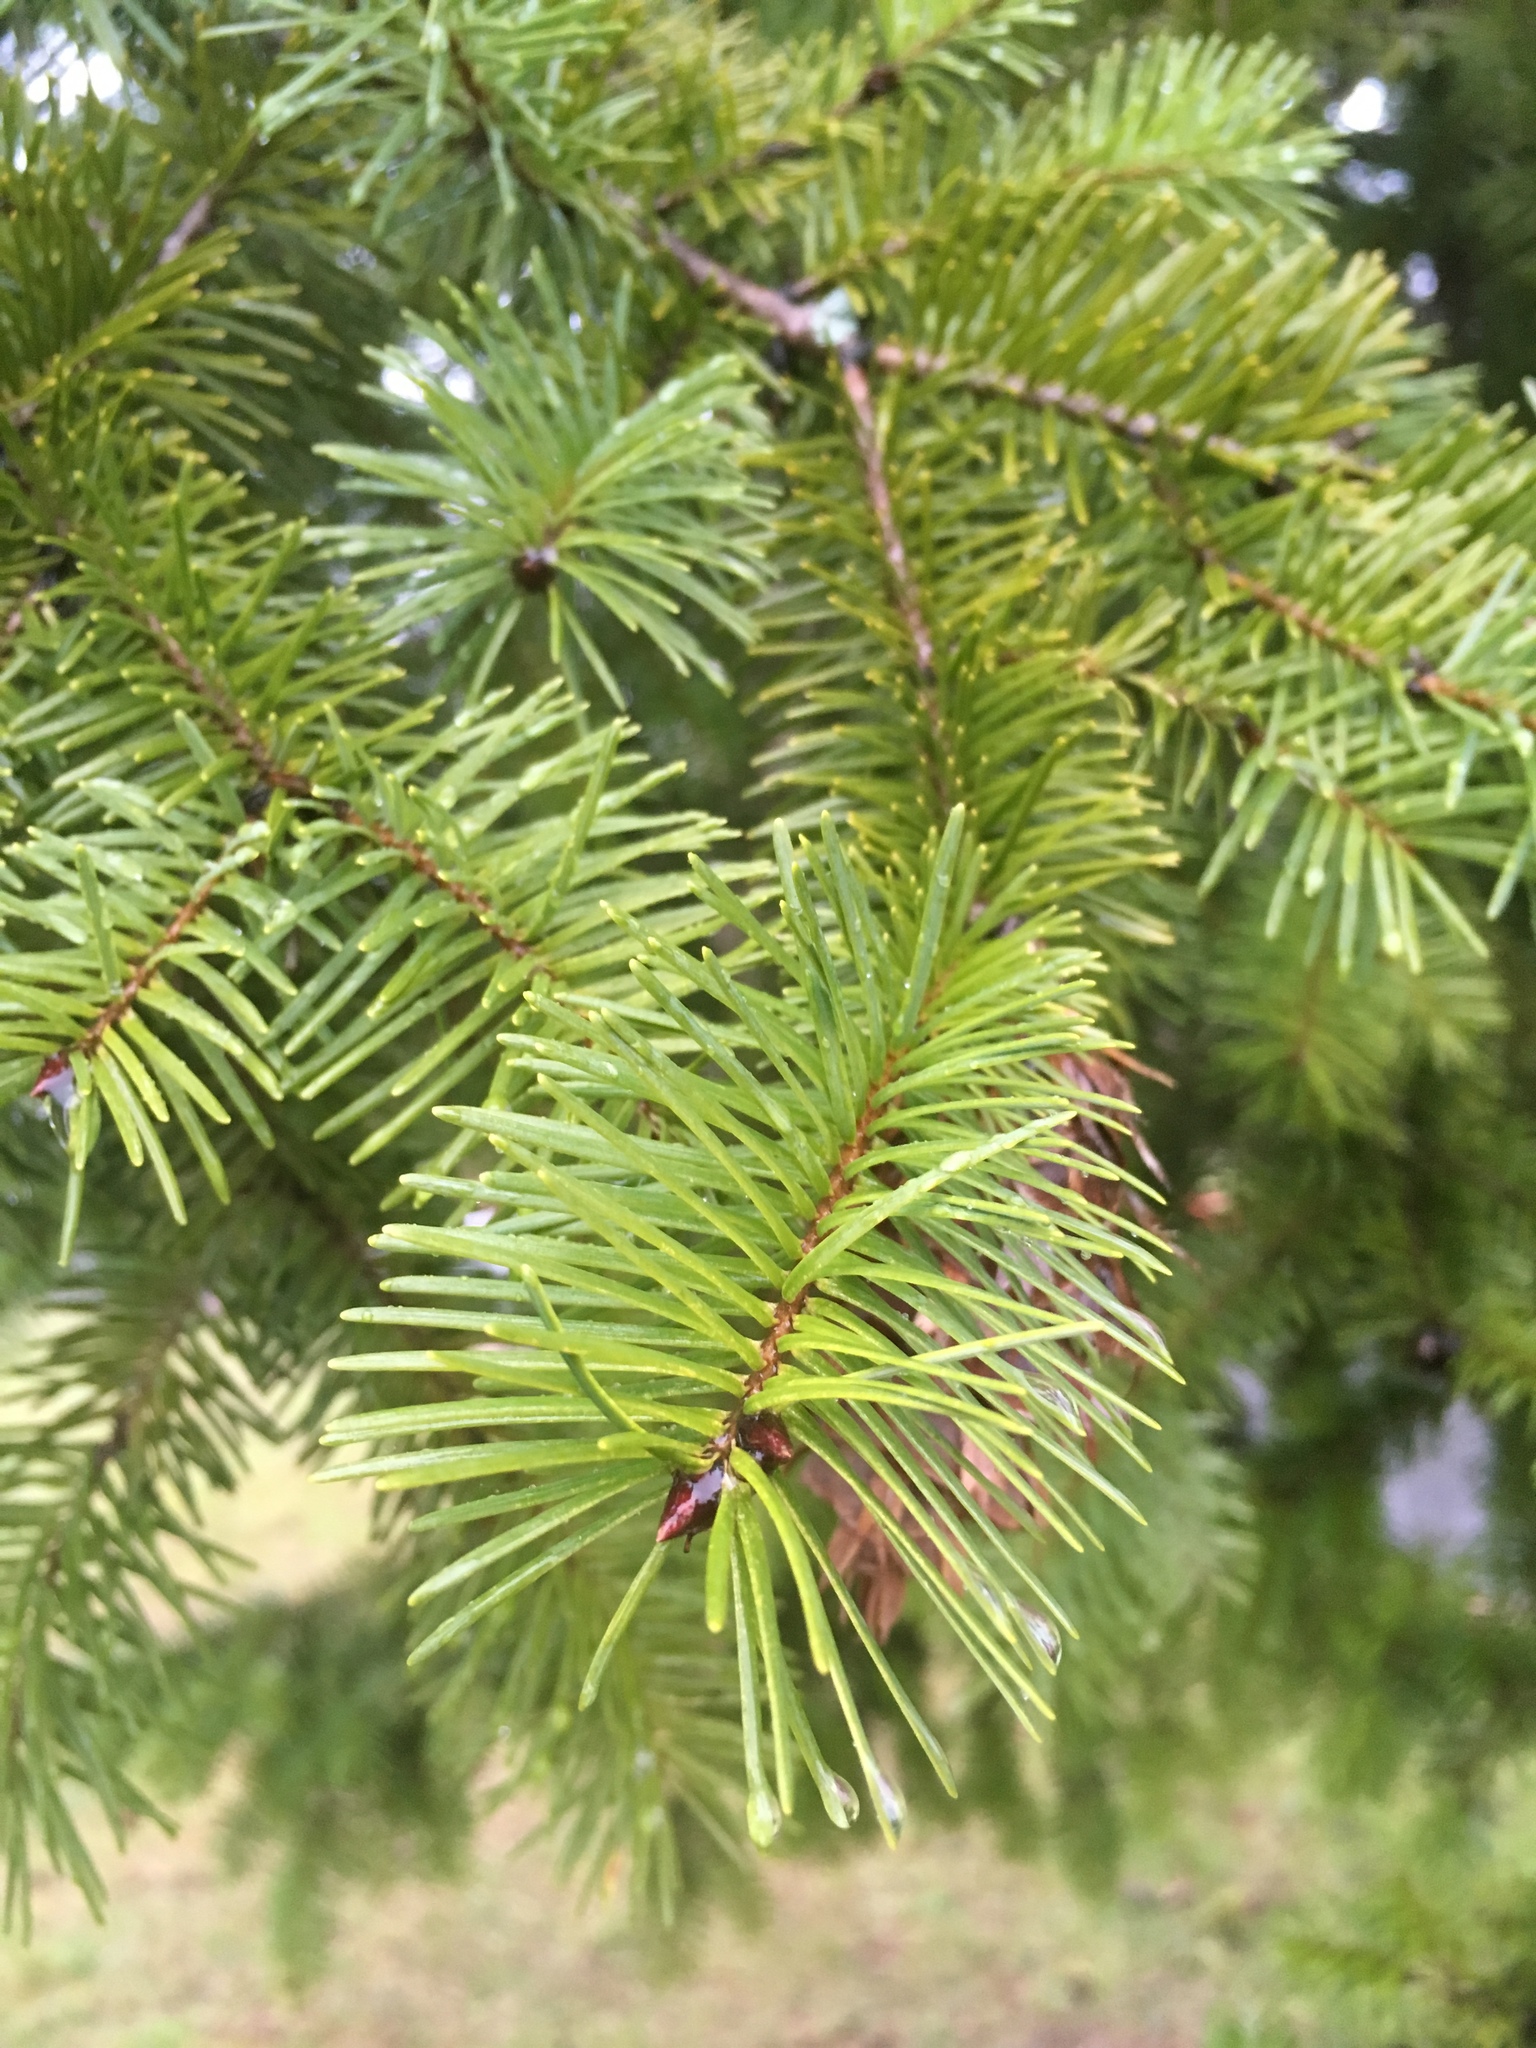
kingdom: Plantae
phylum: Tracheophyta
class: Pinopsida
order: Pinales
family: Pinaceae
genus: Pseudotsuga
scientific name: Pseudotsuga menziesii
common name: Douglas fir
